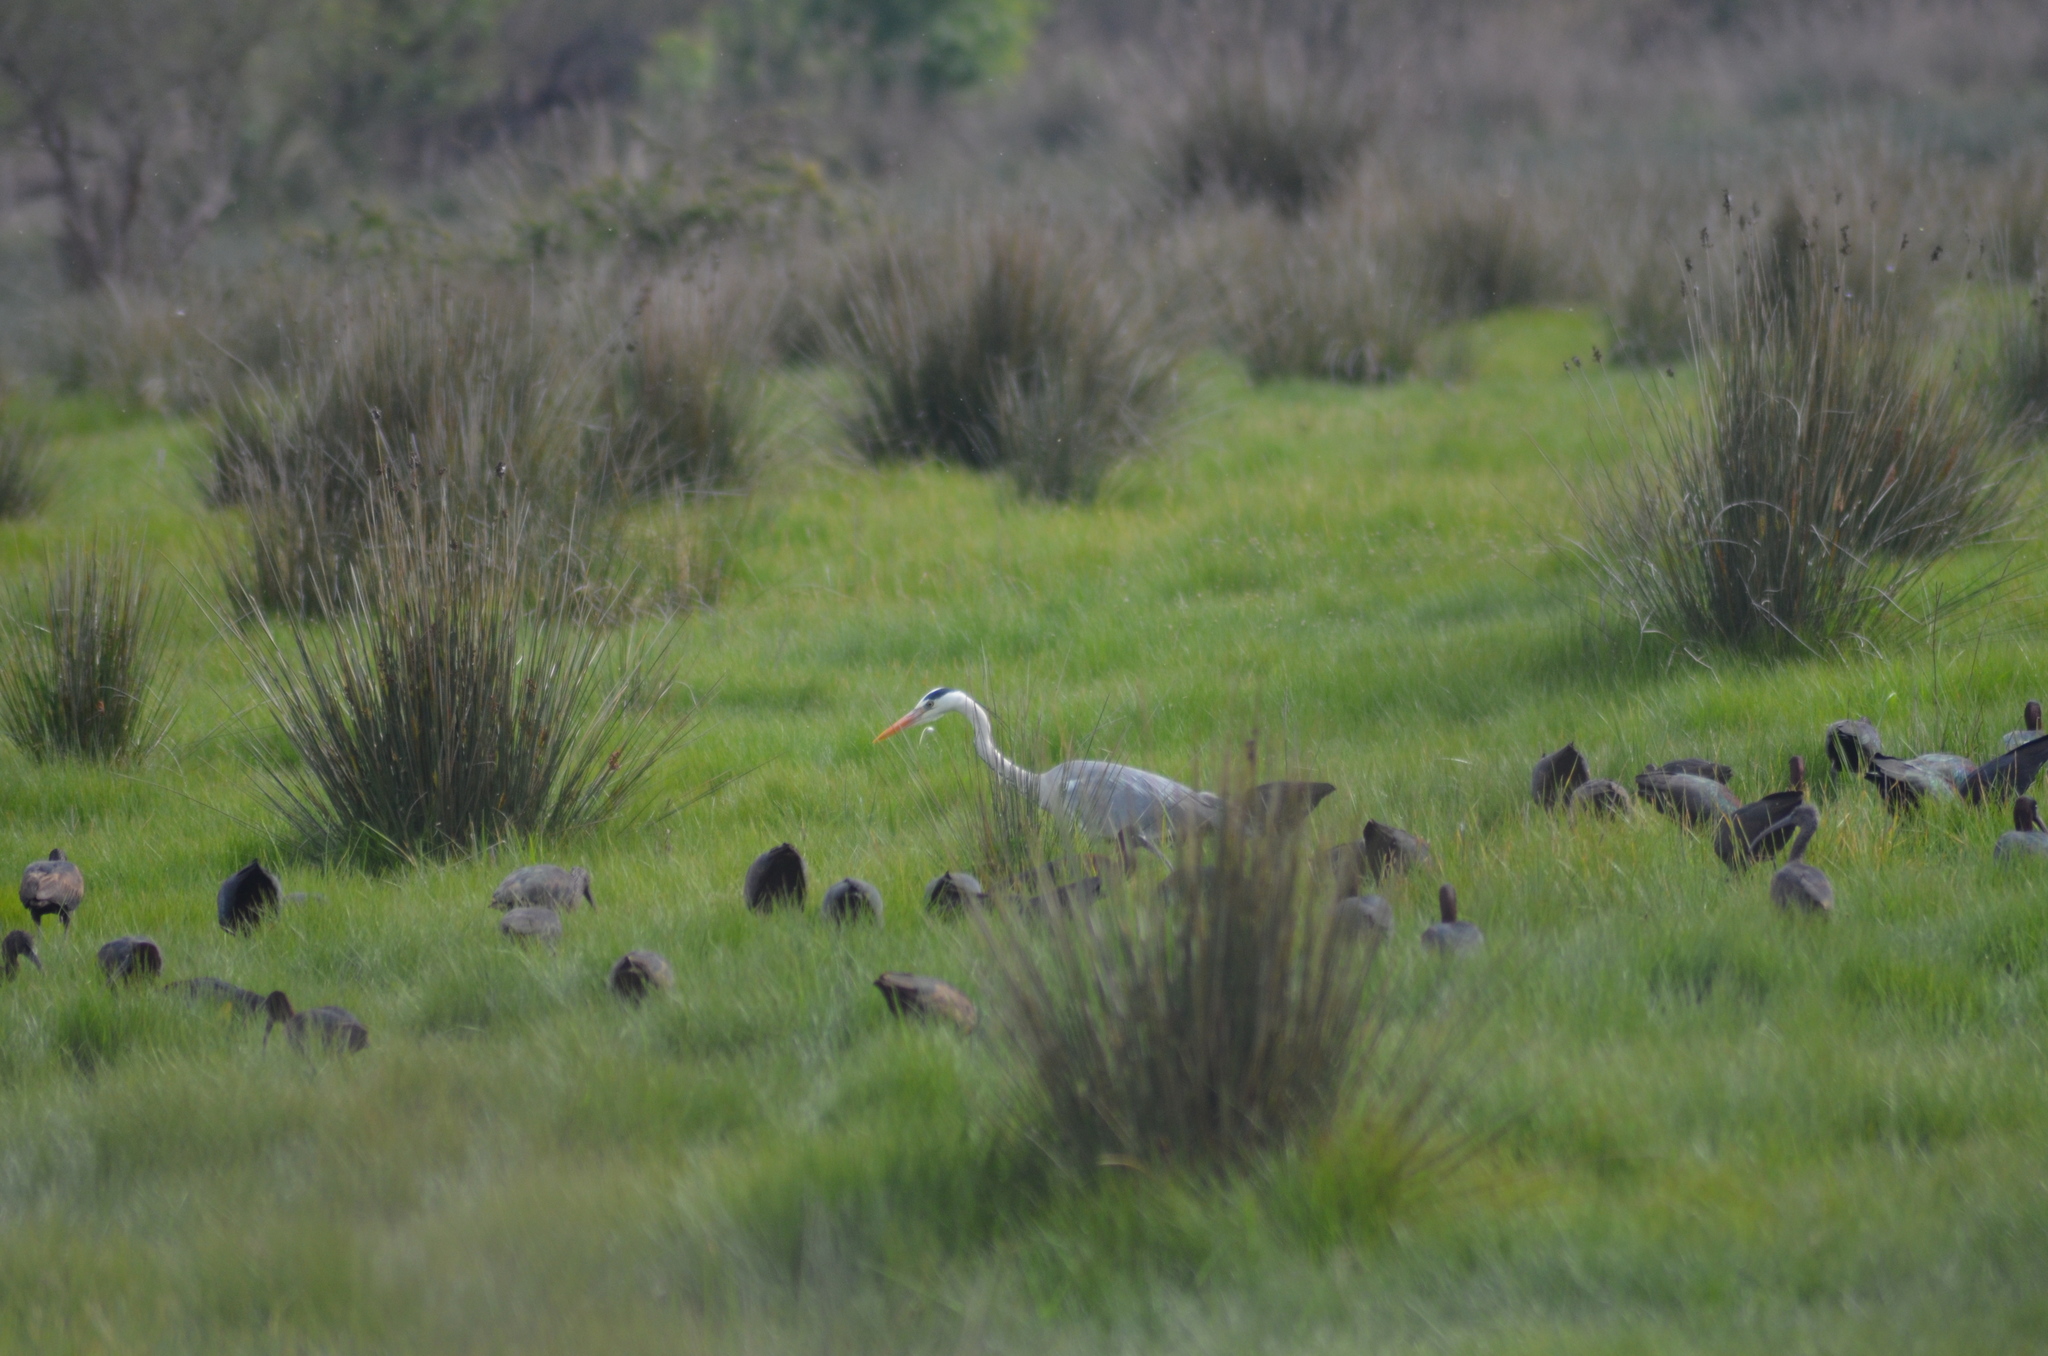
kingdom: Animalia
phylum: Chordata
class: Aves
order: Pelecaniformes
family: Ardeidae
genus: Ardea
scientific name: Ardea cinerea
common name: Grey heron
